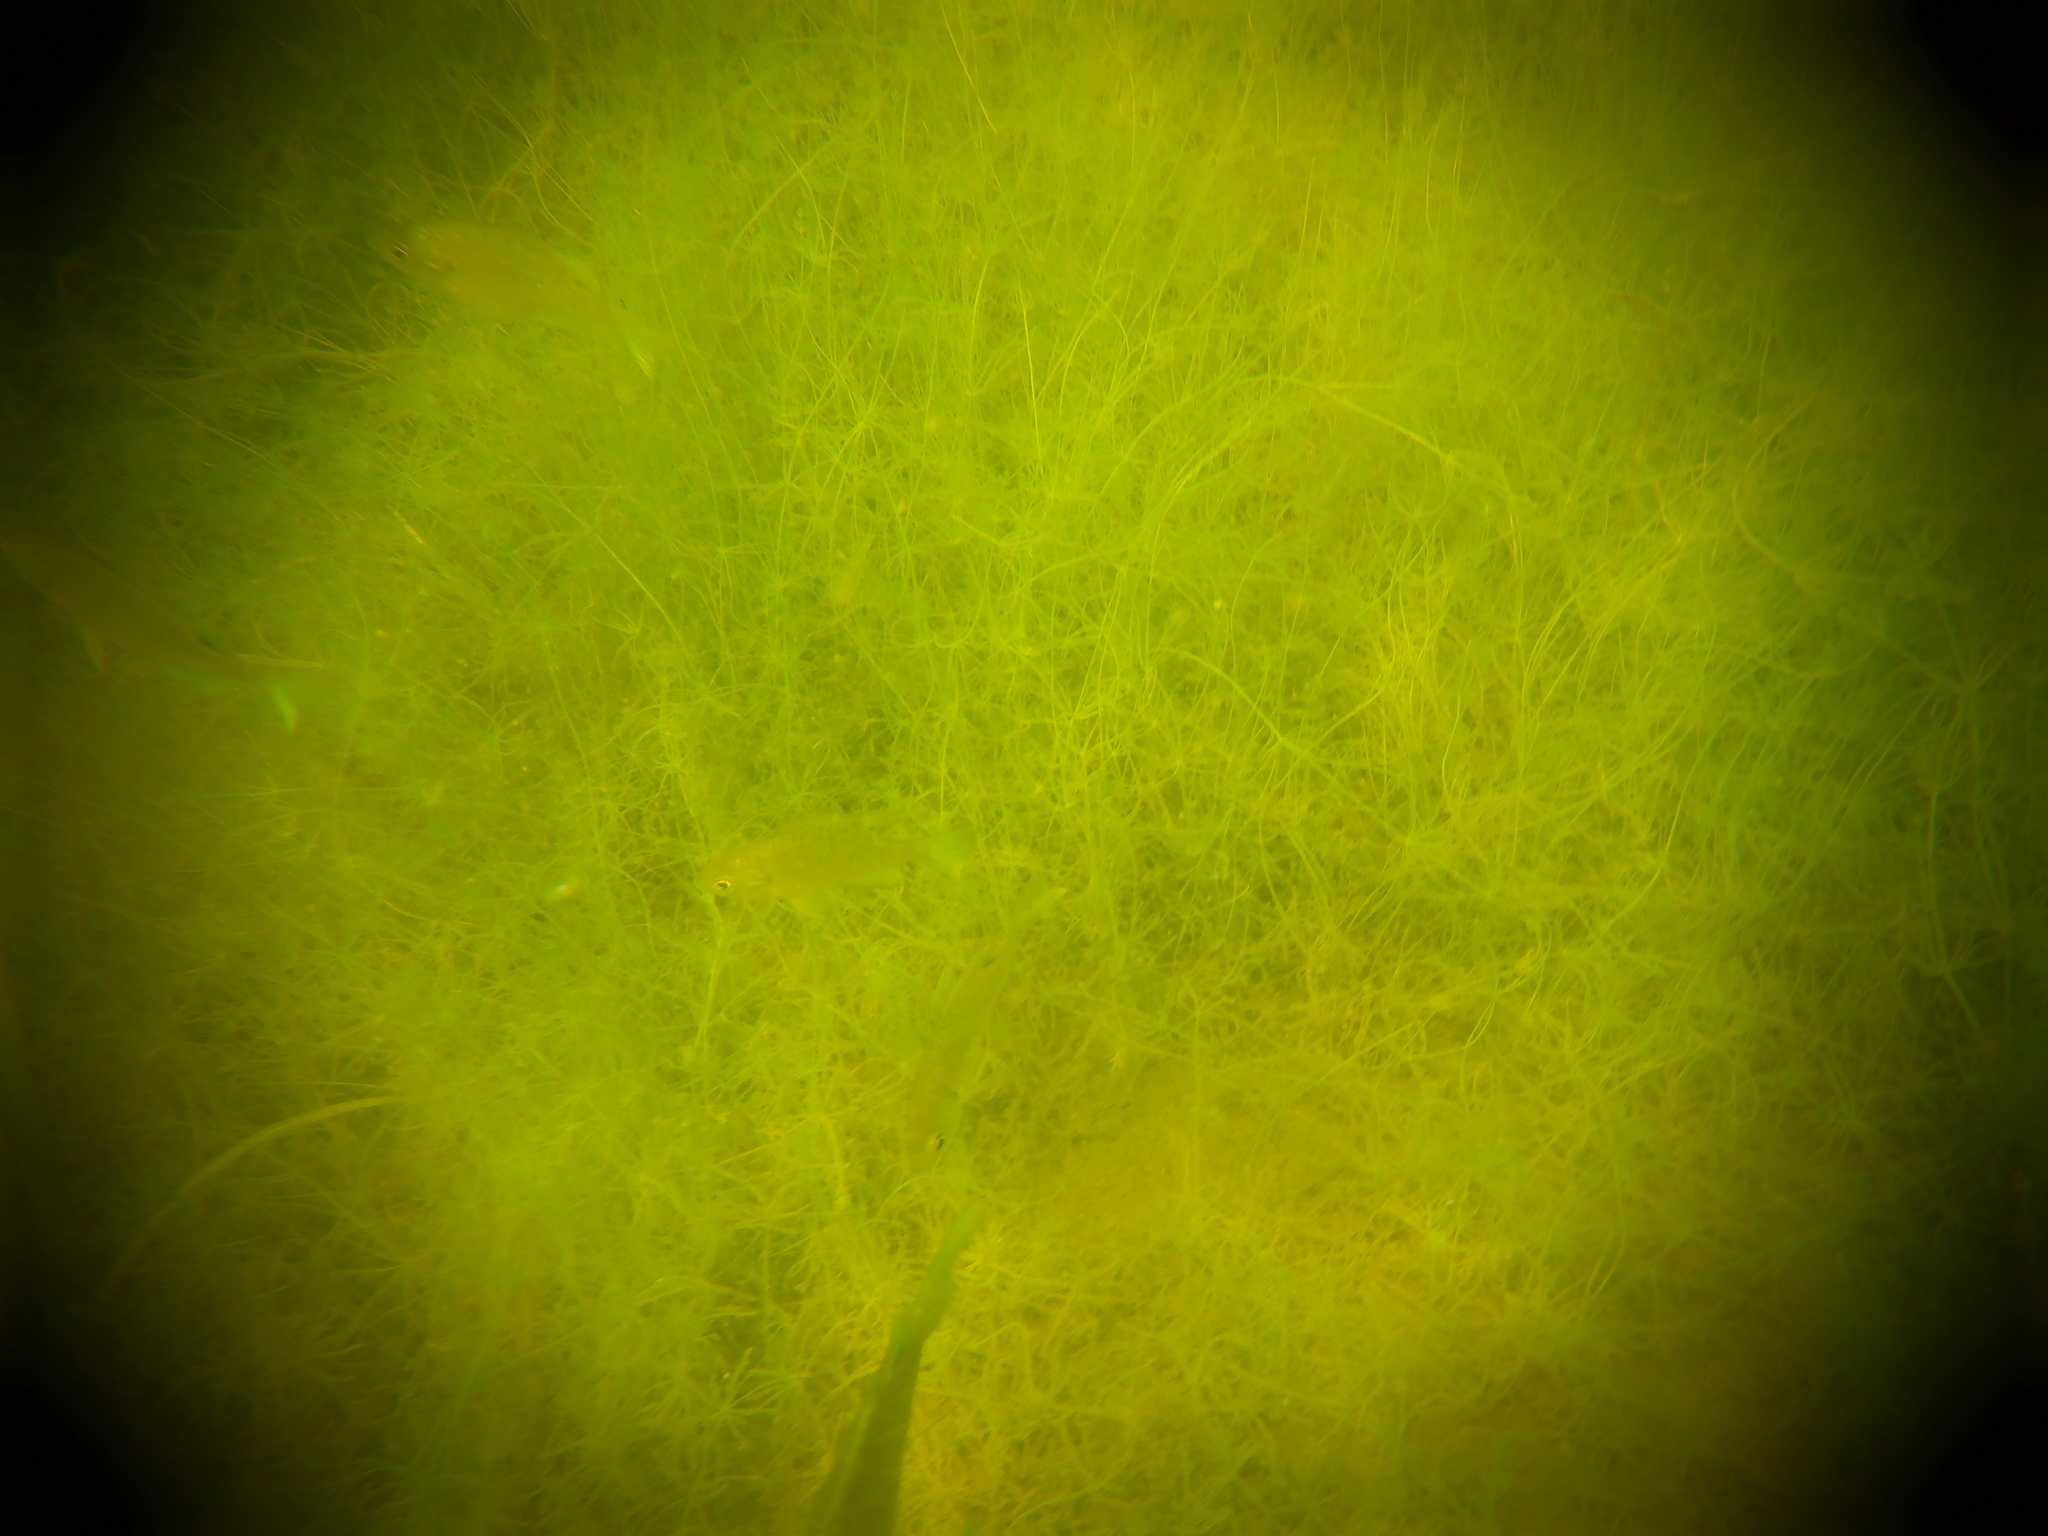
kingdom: Animalia
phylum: Chordata
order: Perciformes
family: Centrarchidae
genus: Lepomis
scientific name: Lepomis macrochirus
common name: Bluegill
